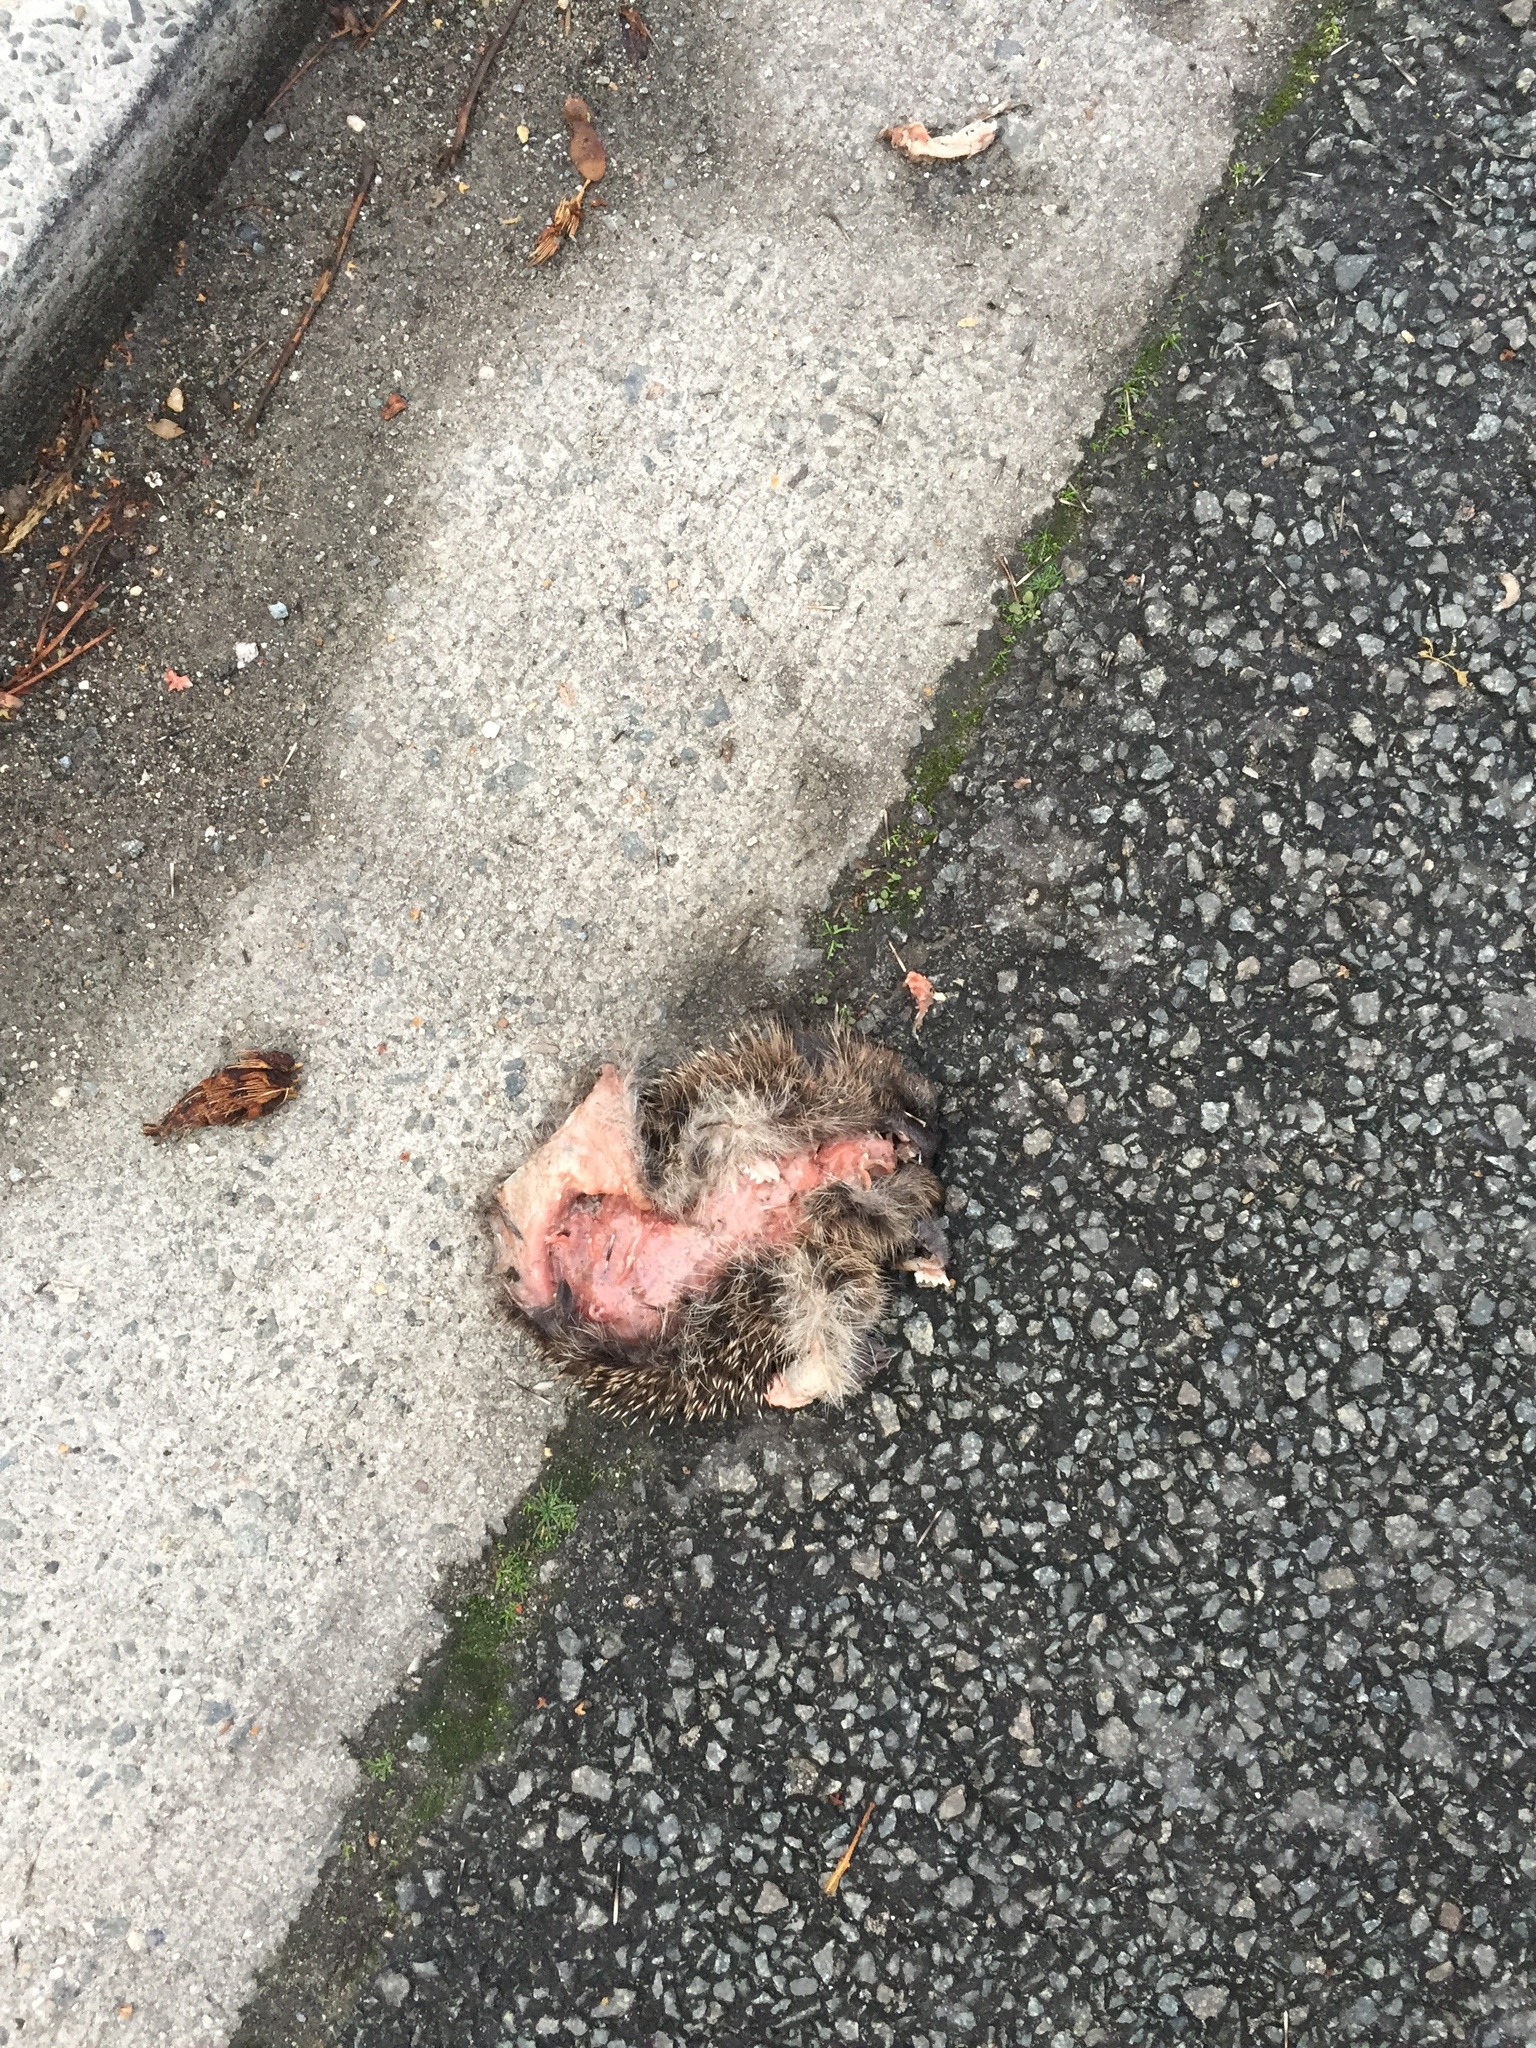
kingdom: Animalia
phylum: Chordata
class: Mammalia
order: Erinaceomorpha
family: Erinaceidae
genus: Erinaceus
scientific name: Erinaceus europaeus
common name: West european hedgehog
